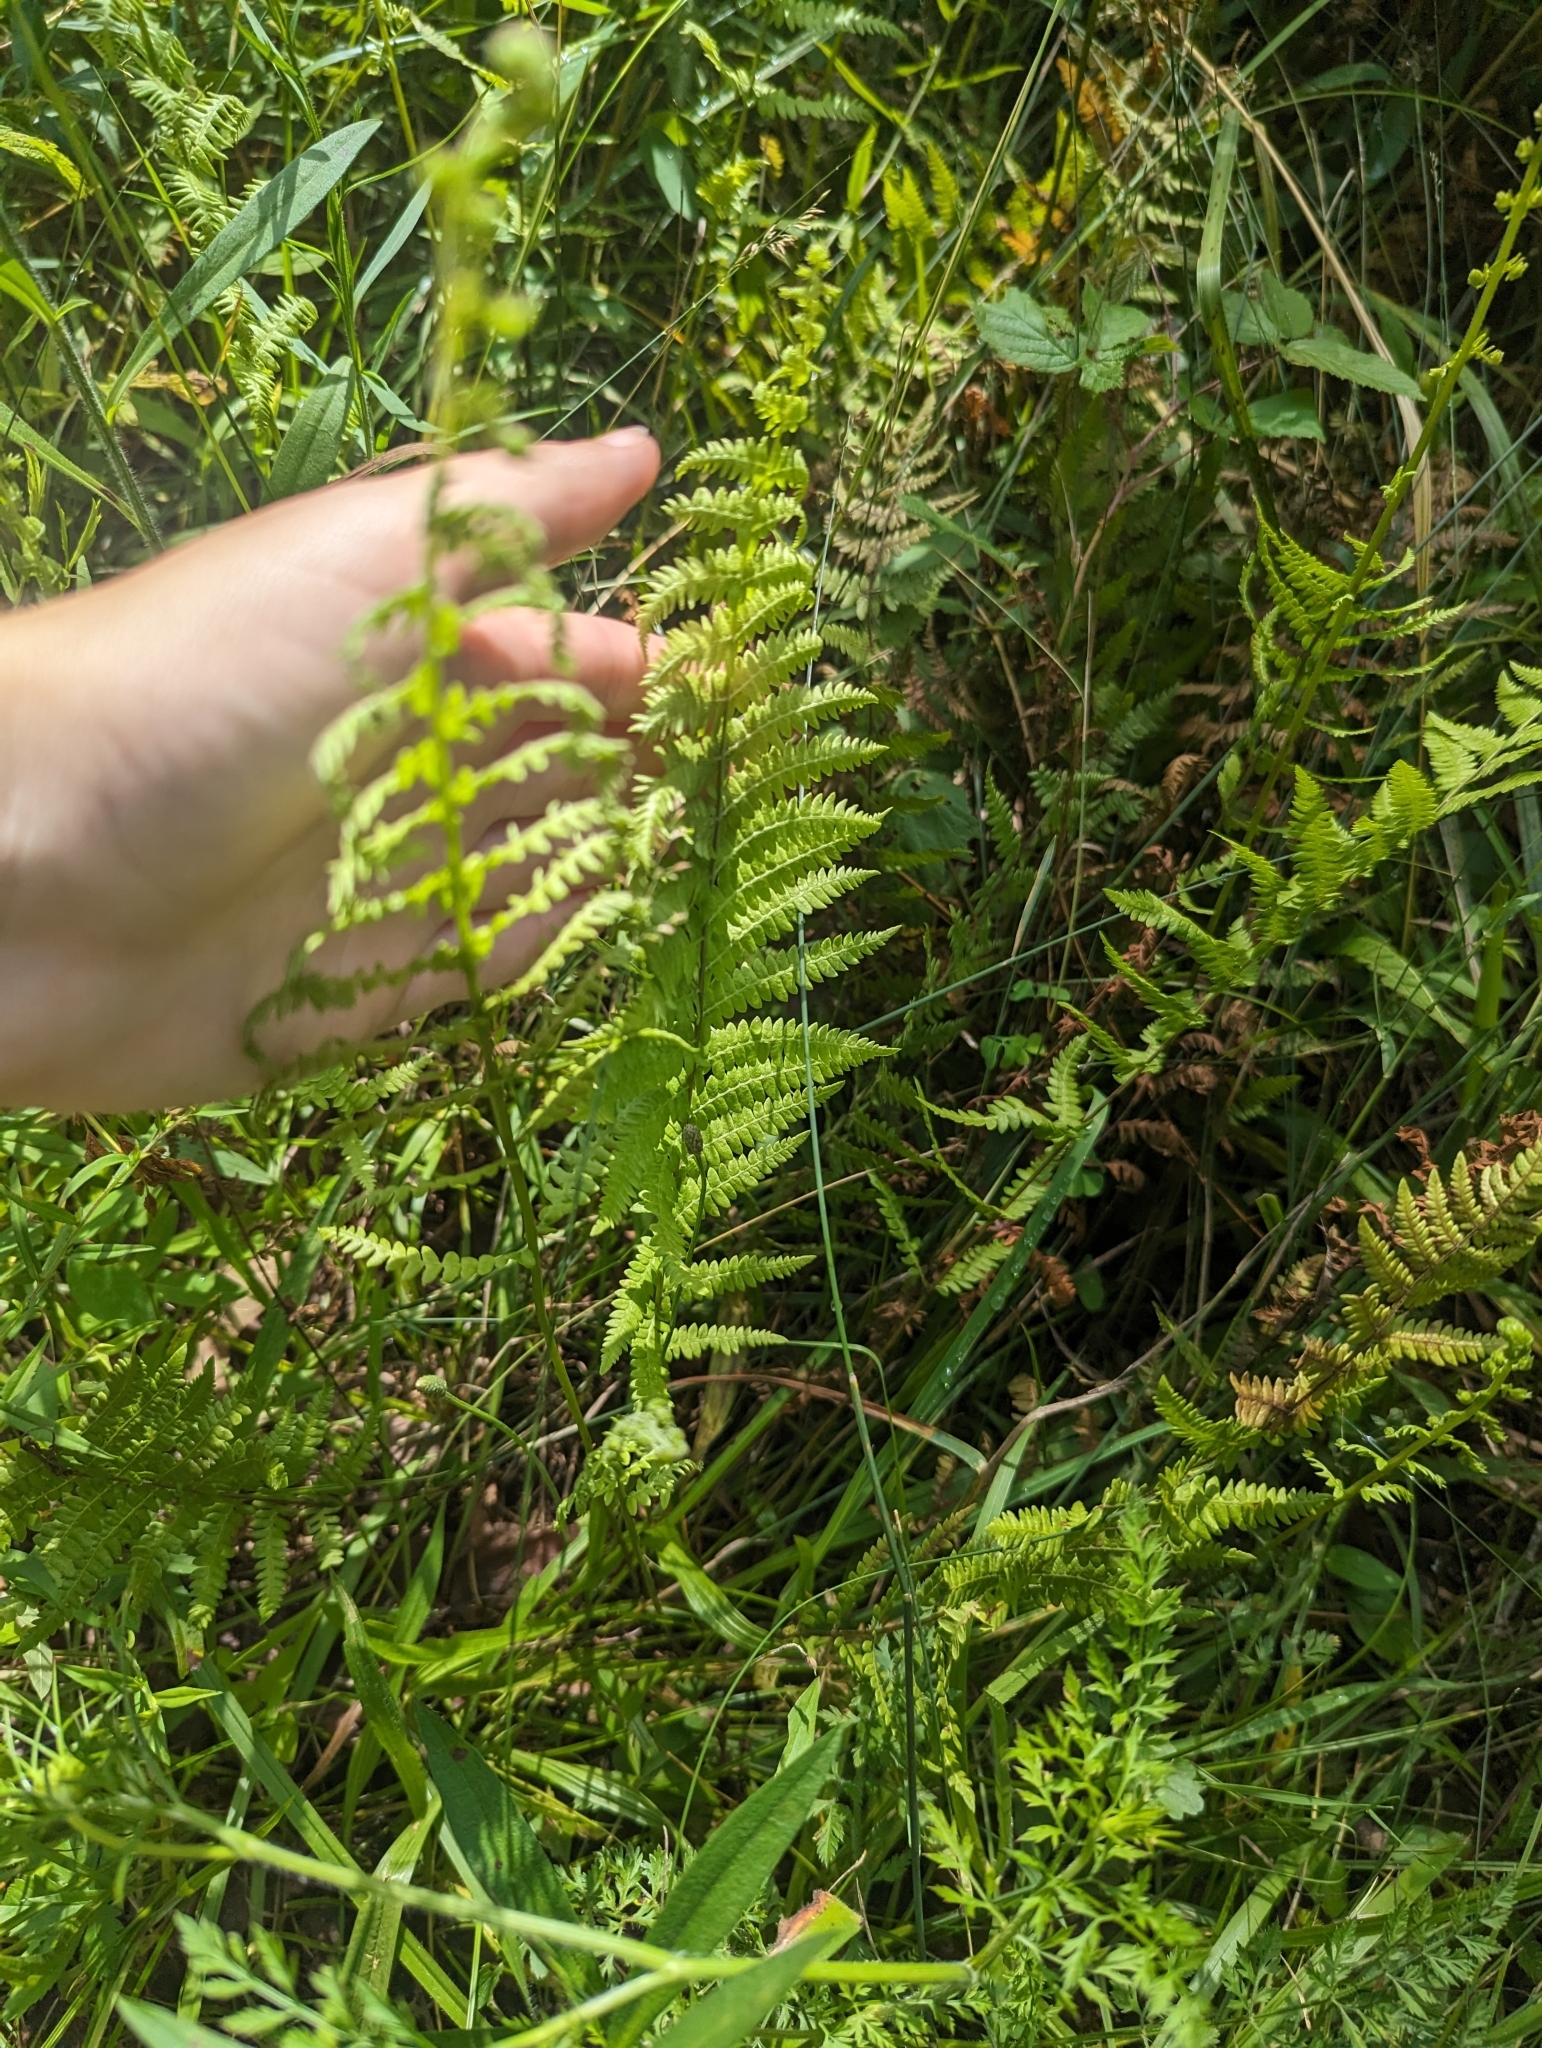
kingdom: Plantae
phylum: Tracheophyta
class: Polypodiopsida
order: Polypodiales
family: Thelypteridaceae
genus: Thelypteris
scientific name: Thelypteris palustris
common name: Marsh fern
